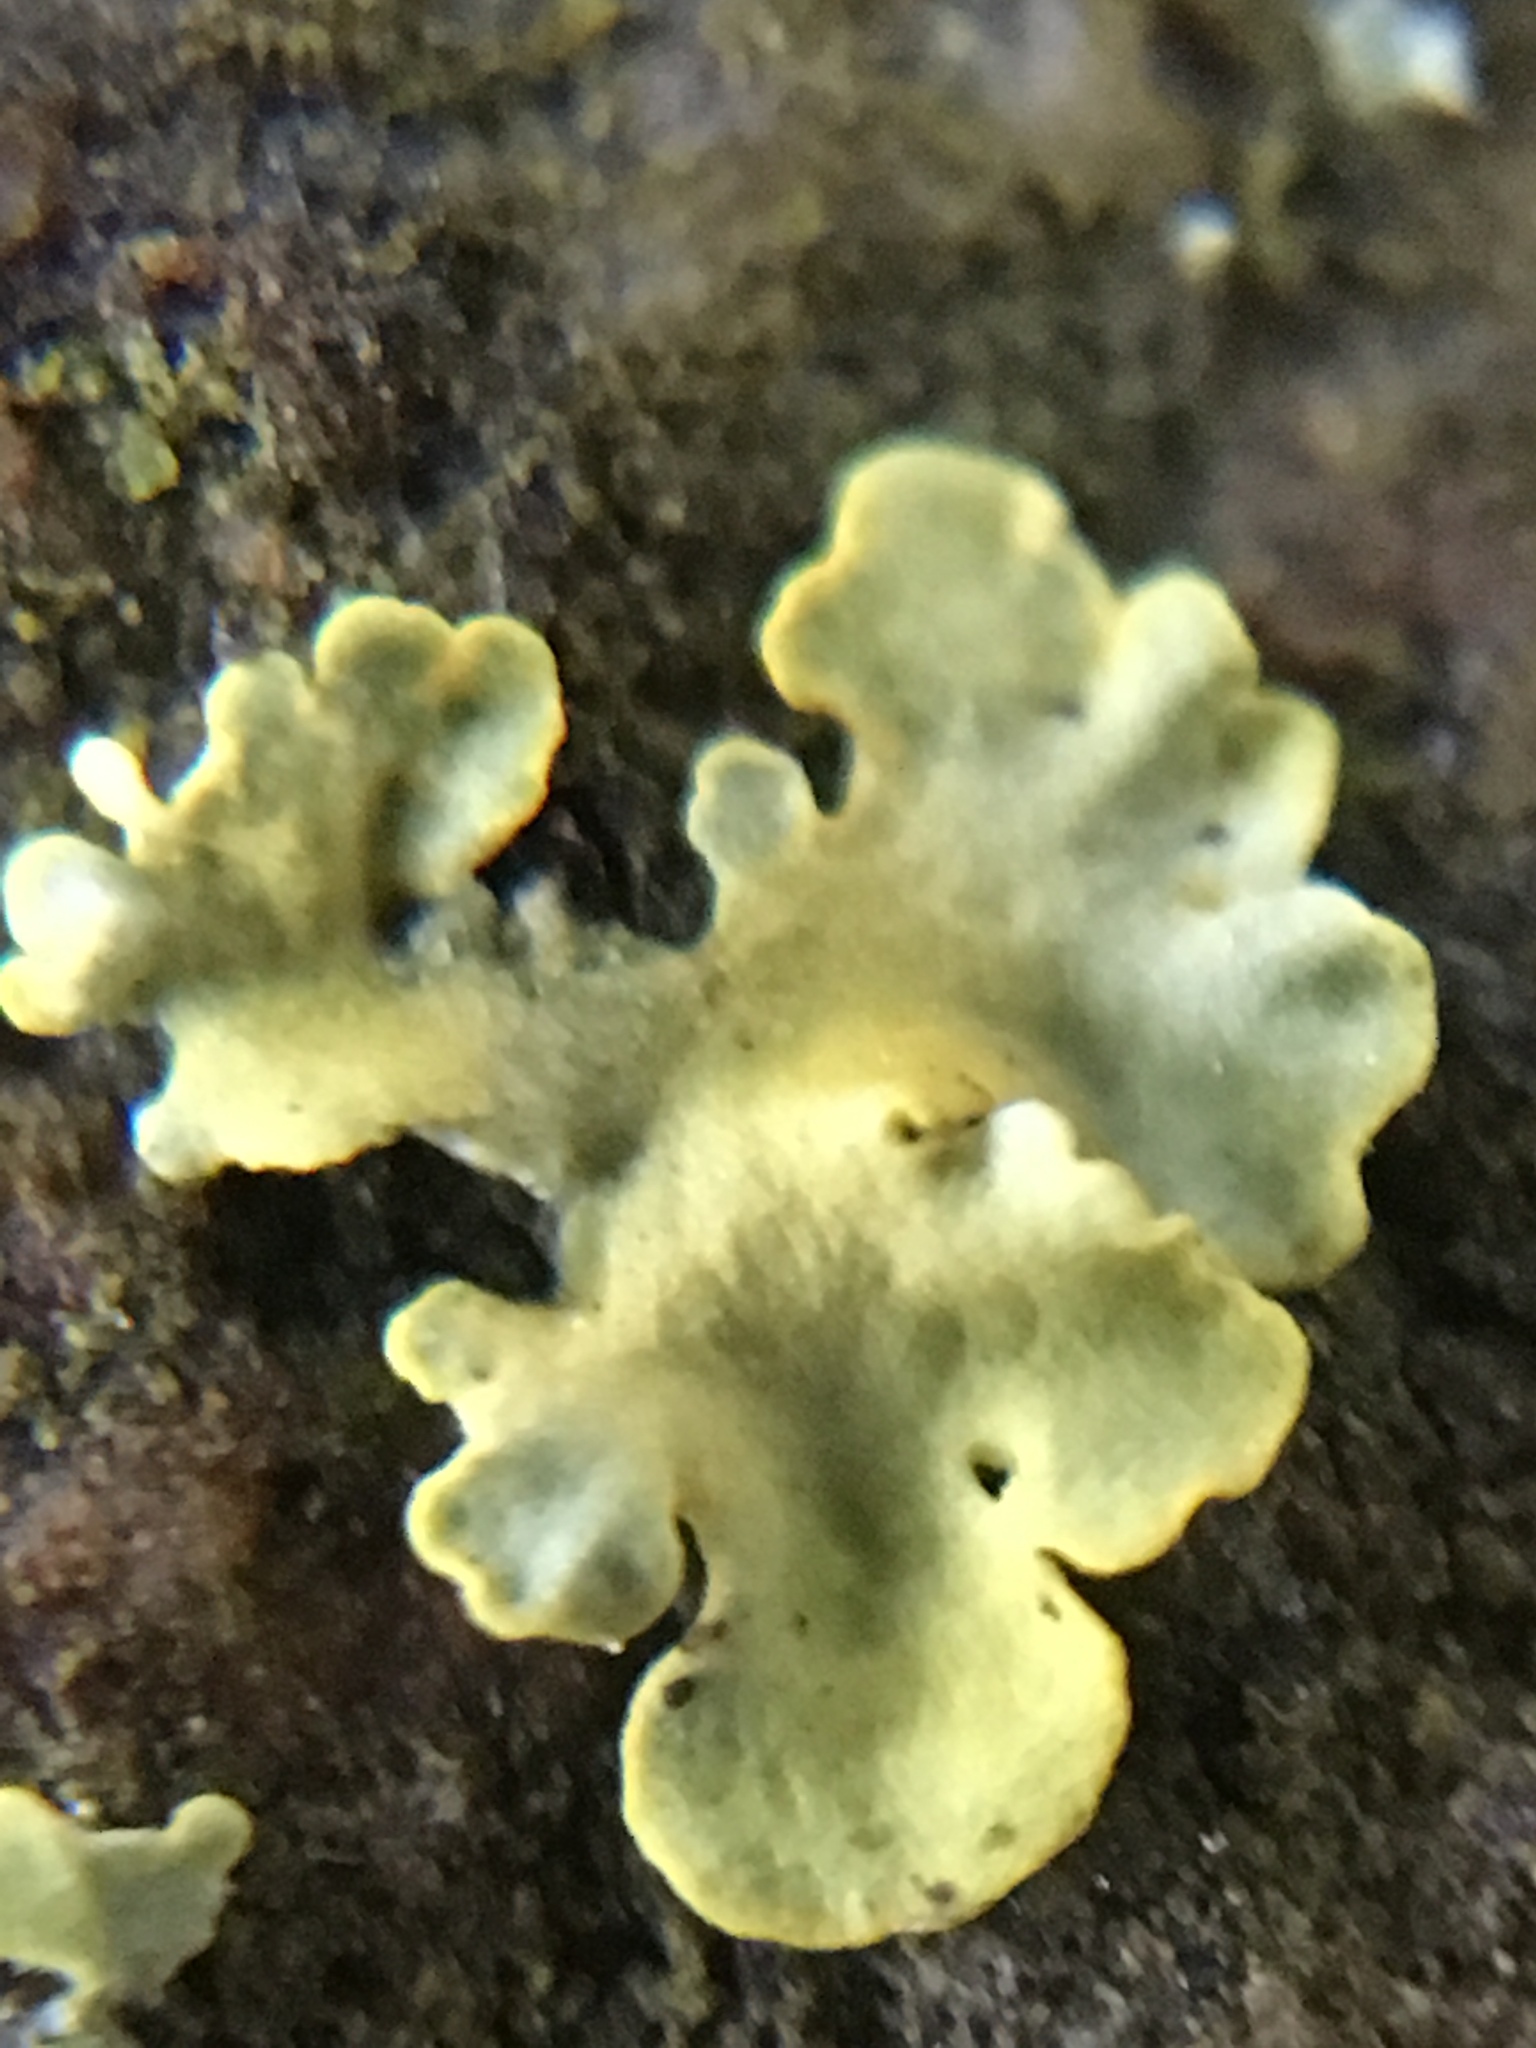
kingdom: Fungi
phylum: Ascomycota
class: Lecanoromycetes
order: Teloschistales
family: Teloschistaceae
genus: Xanthoria
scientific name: Xanthoria parietina
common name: Common orange lichen
